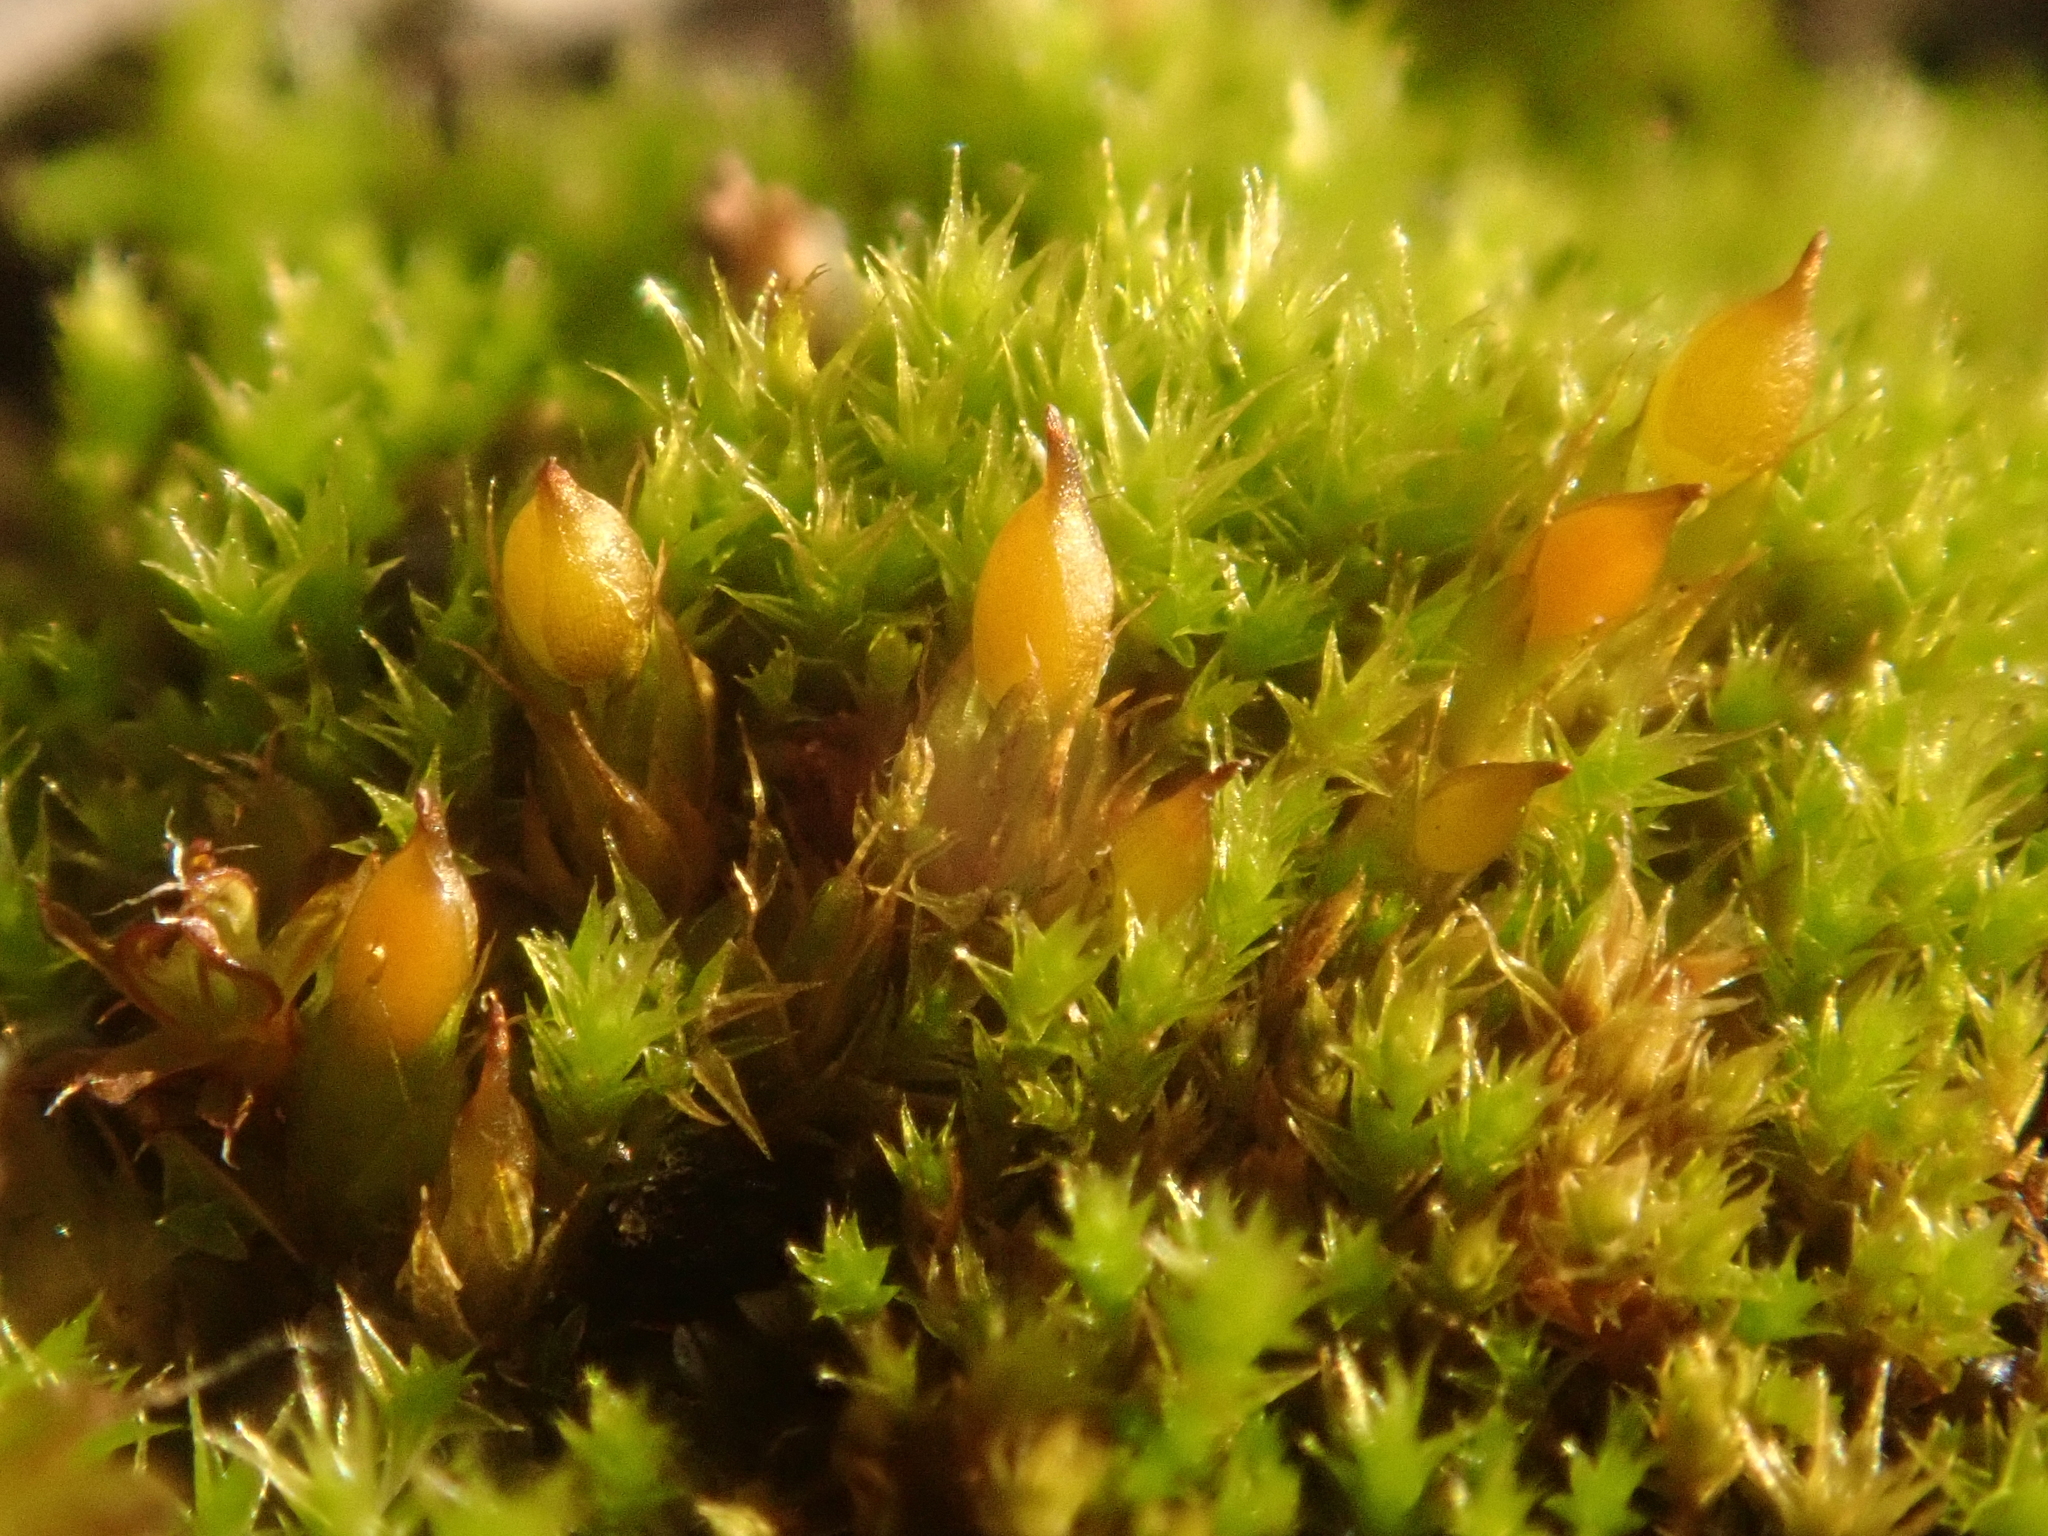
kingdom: Plantae
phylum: Bryophyta
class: Bryopsida
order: Pottiales
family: Pottiaceae
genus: Tortula
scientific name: Tortula protobryoides
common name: Tall pottia
